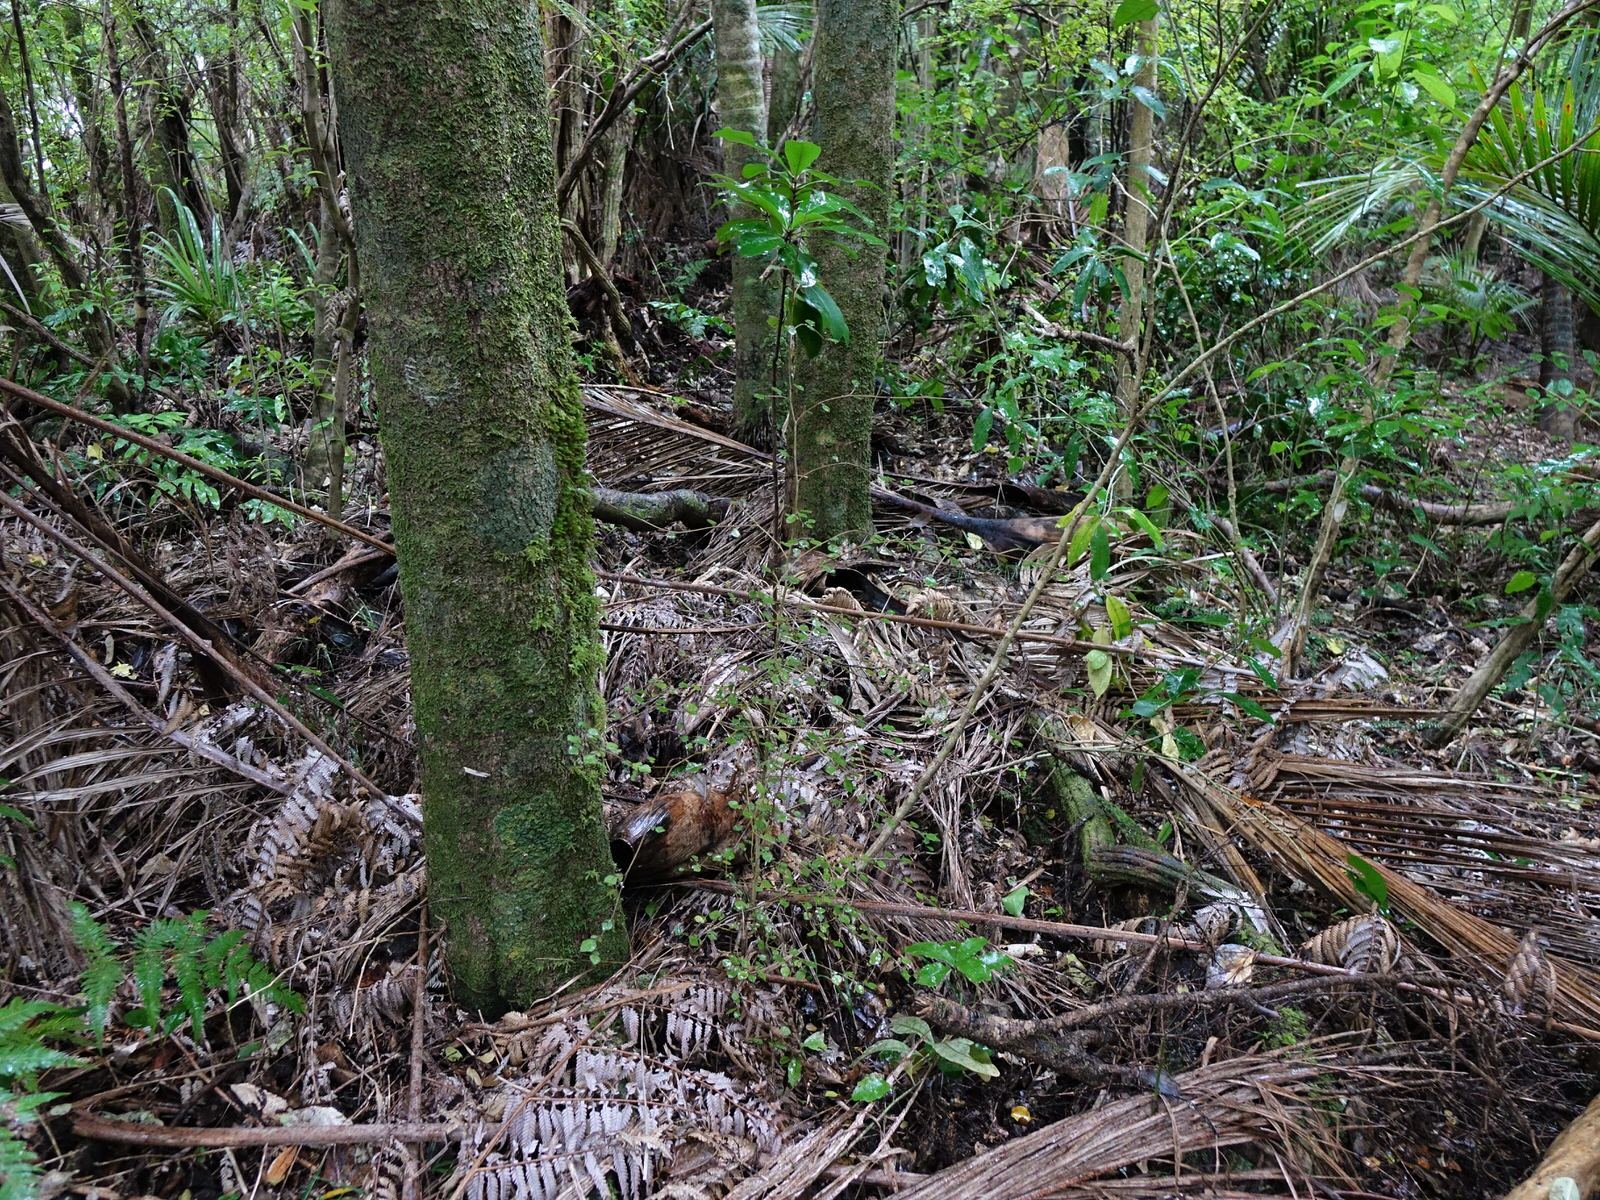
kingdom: Plantae
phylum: Tracheophyta
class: Magnoliopsida
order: Rosales
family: Moraceae
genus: Paratrophis
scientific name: Paratrophis microphylla
